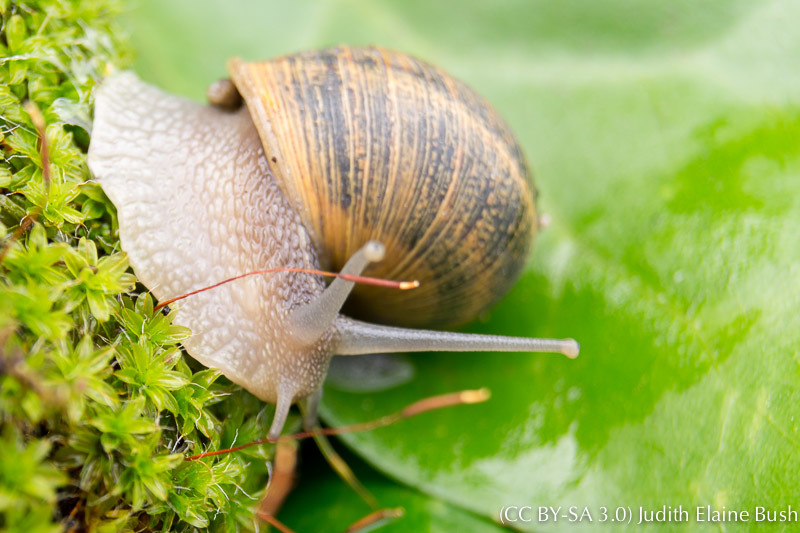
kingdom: Animalia
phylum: Mollusca
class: Gastropoda
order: Stylommatophora
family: Helicidae
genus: Cornu
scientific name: Cornu aspersum
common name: Brown garden snail
